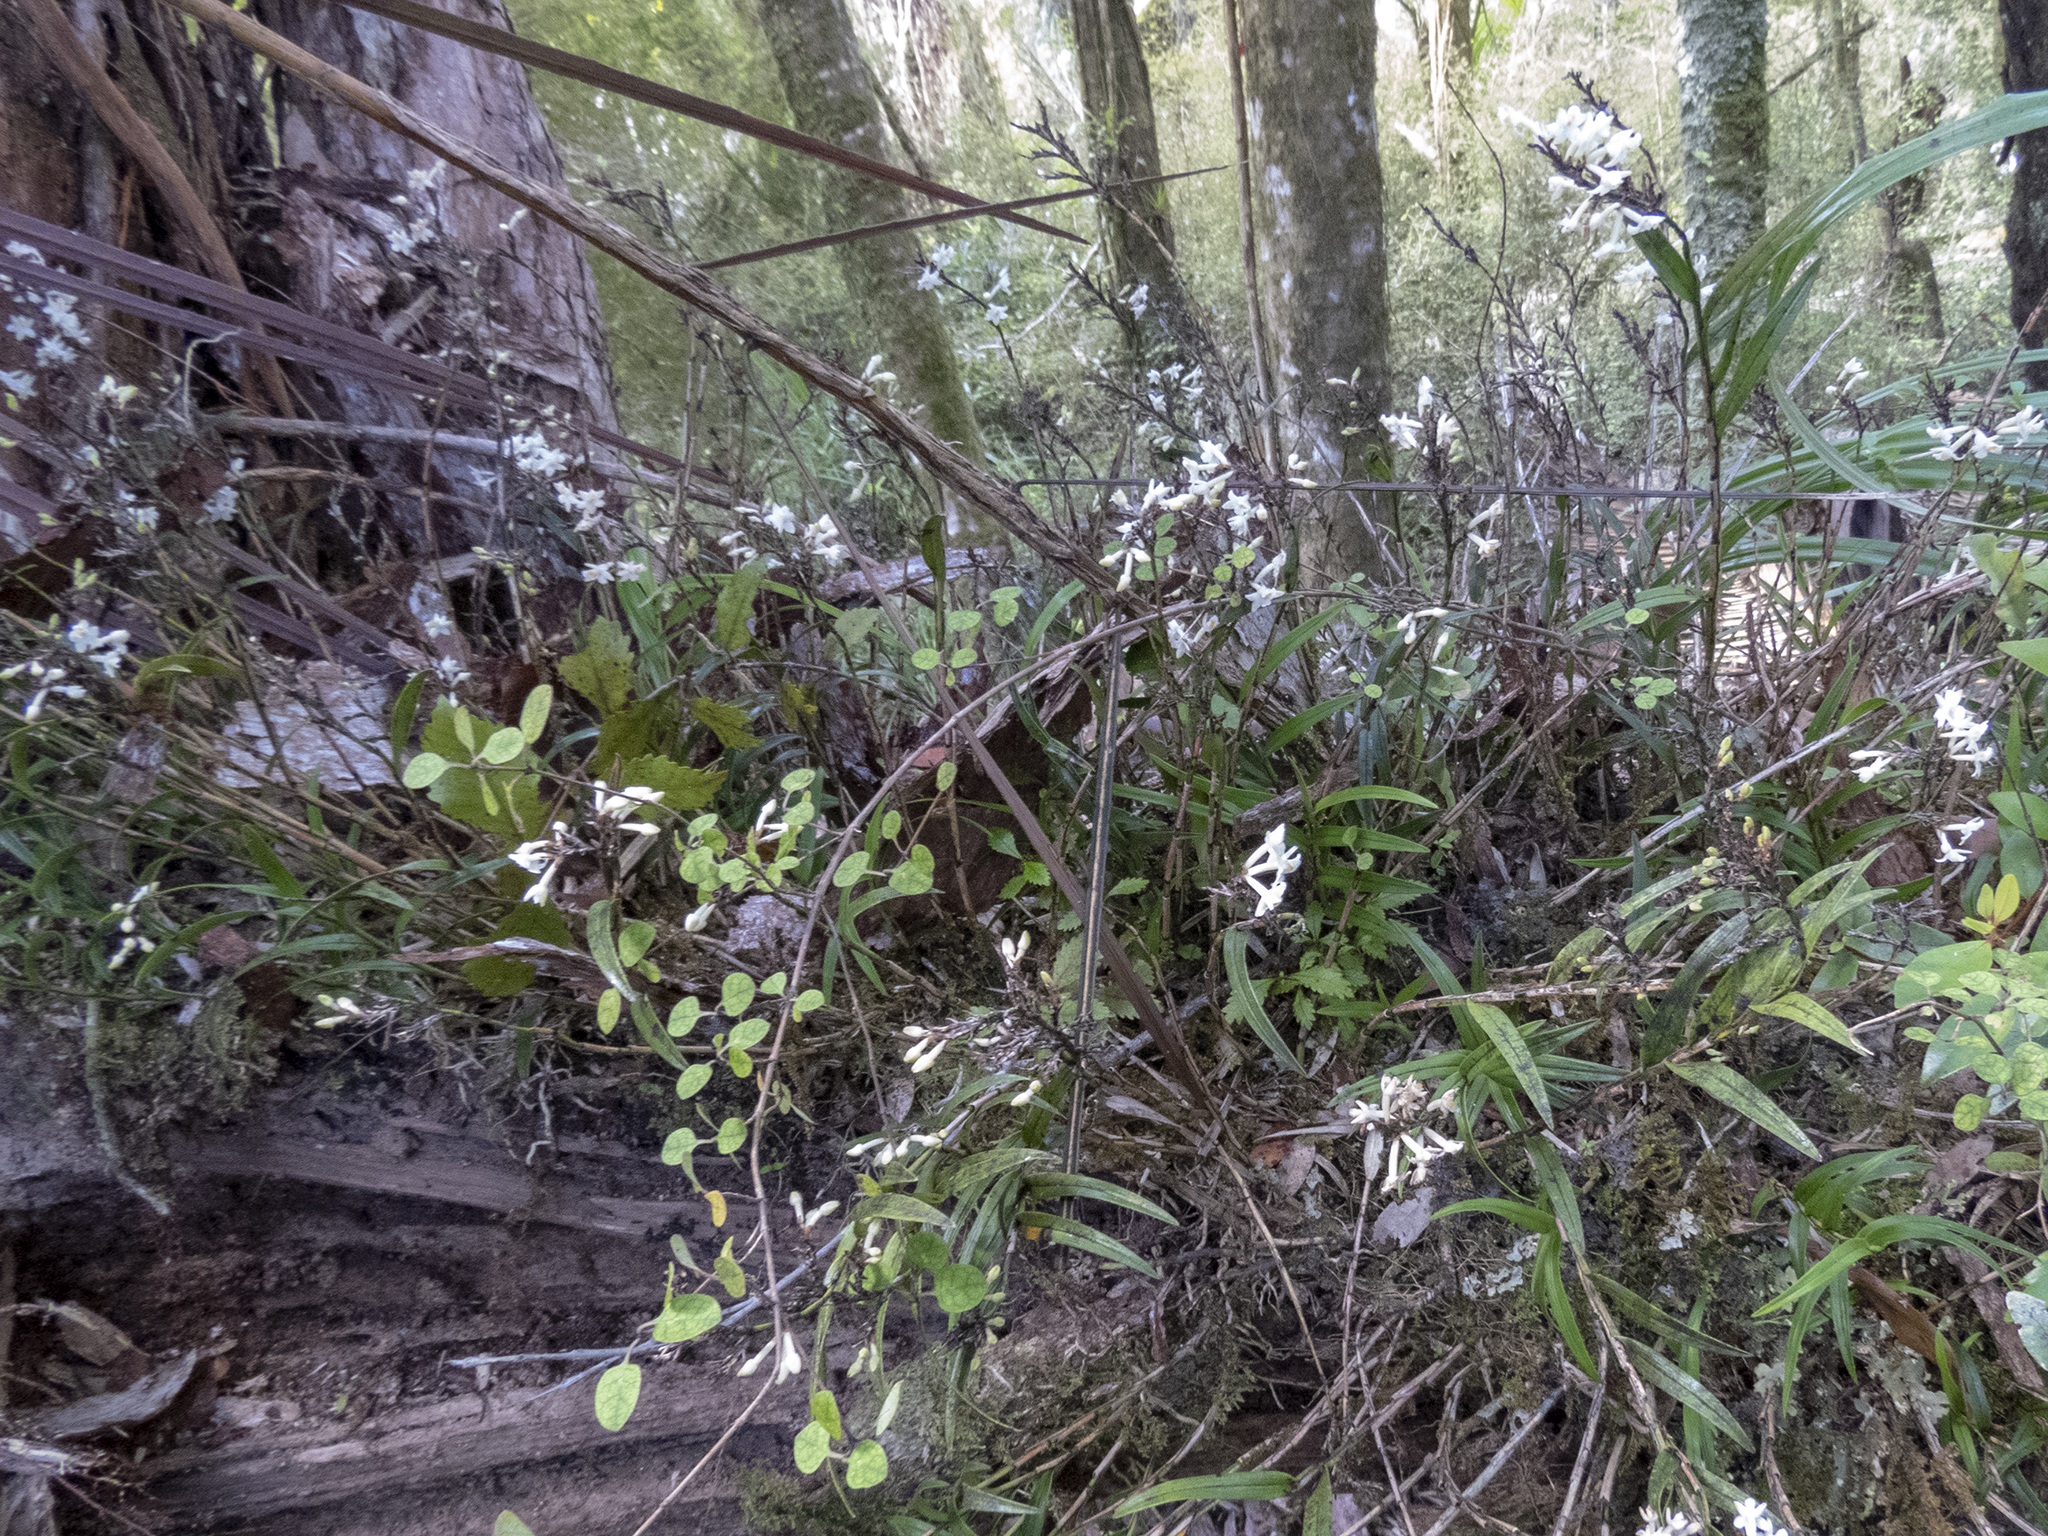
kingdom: Plantae
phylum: Tracheophyta
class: Liliopsida
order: Asparagales
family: Orchidaceae
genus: Earina
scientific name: Earina autumnalis
